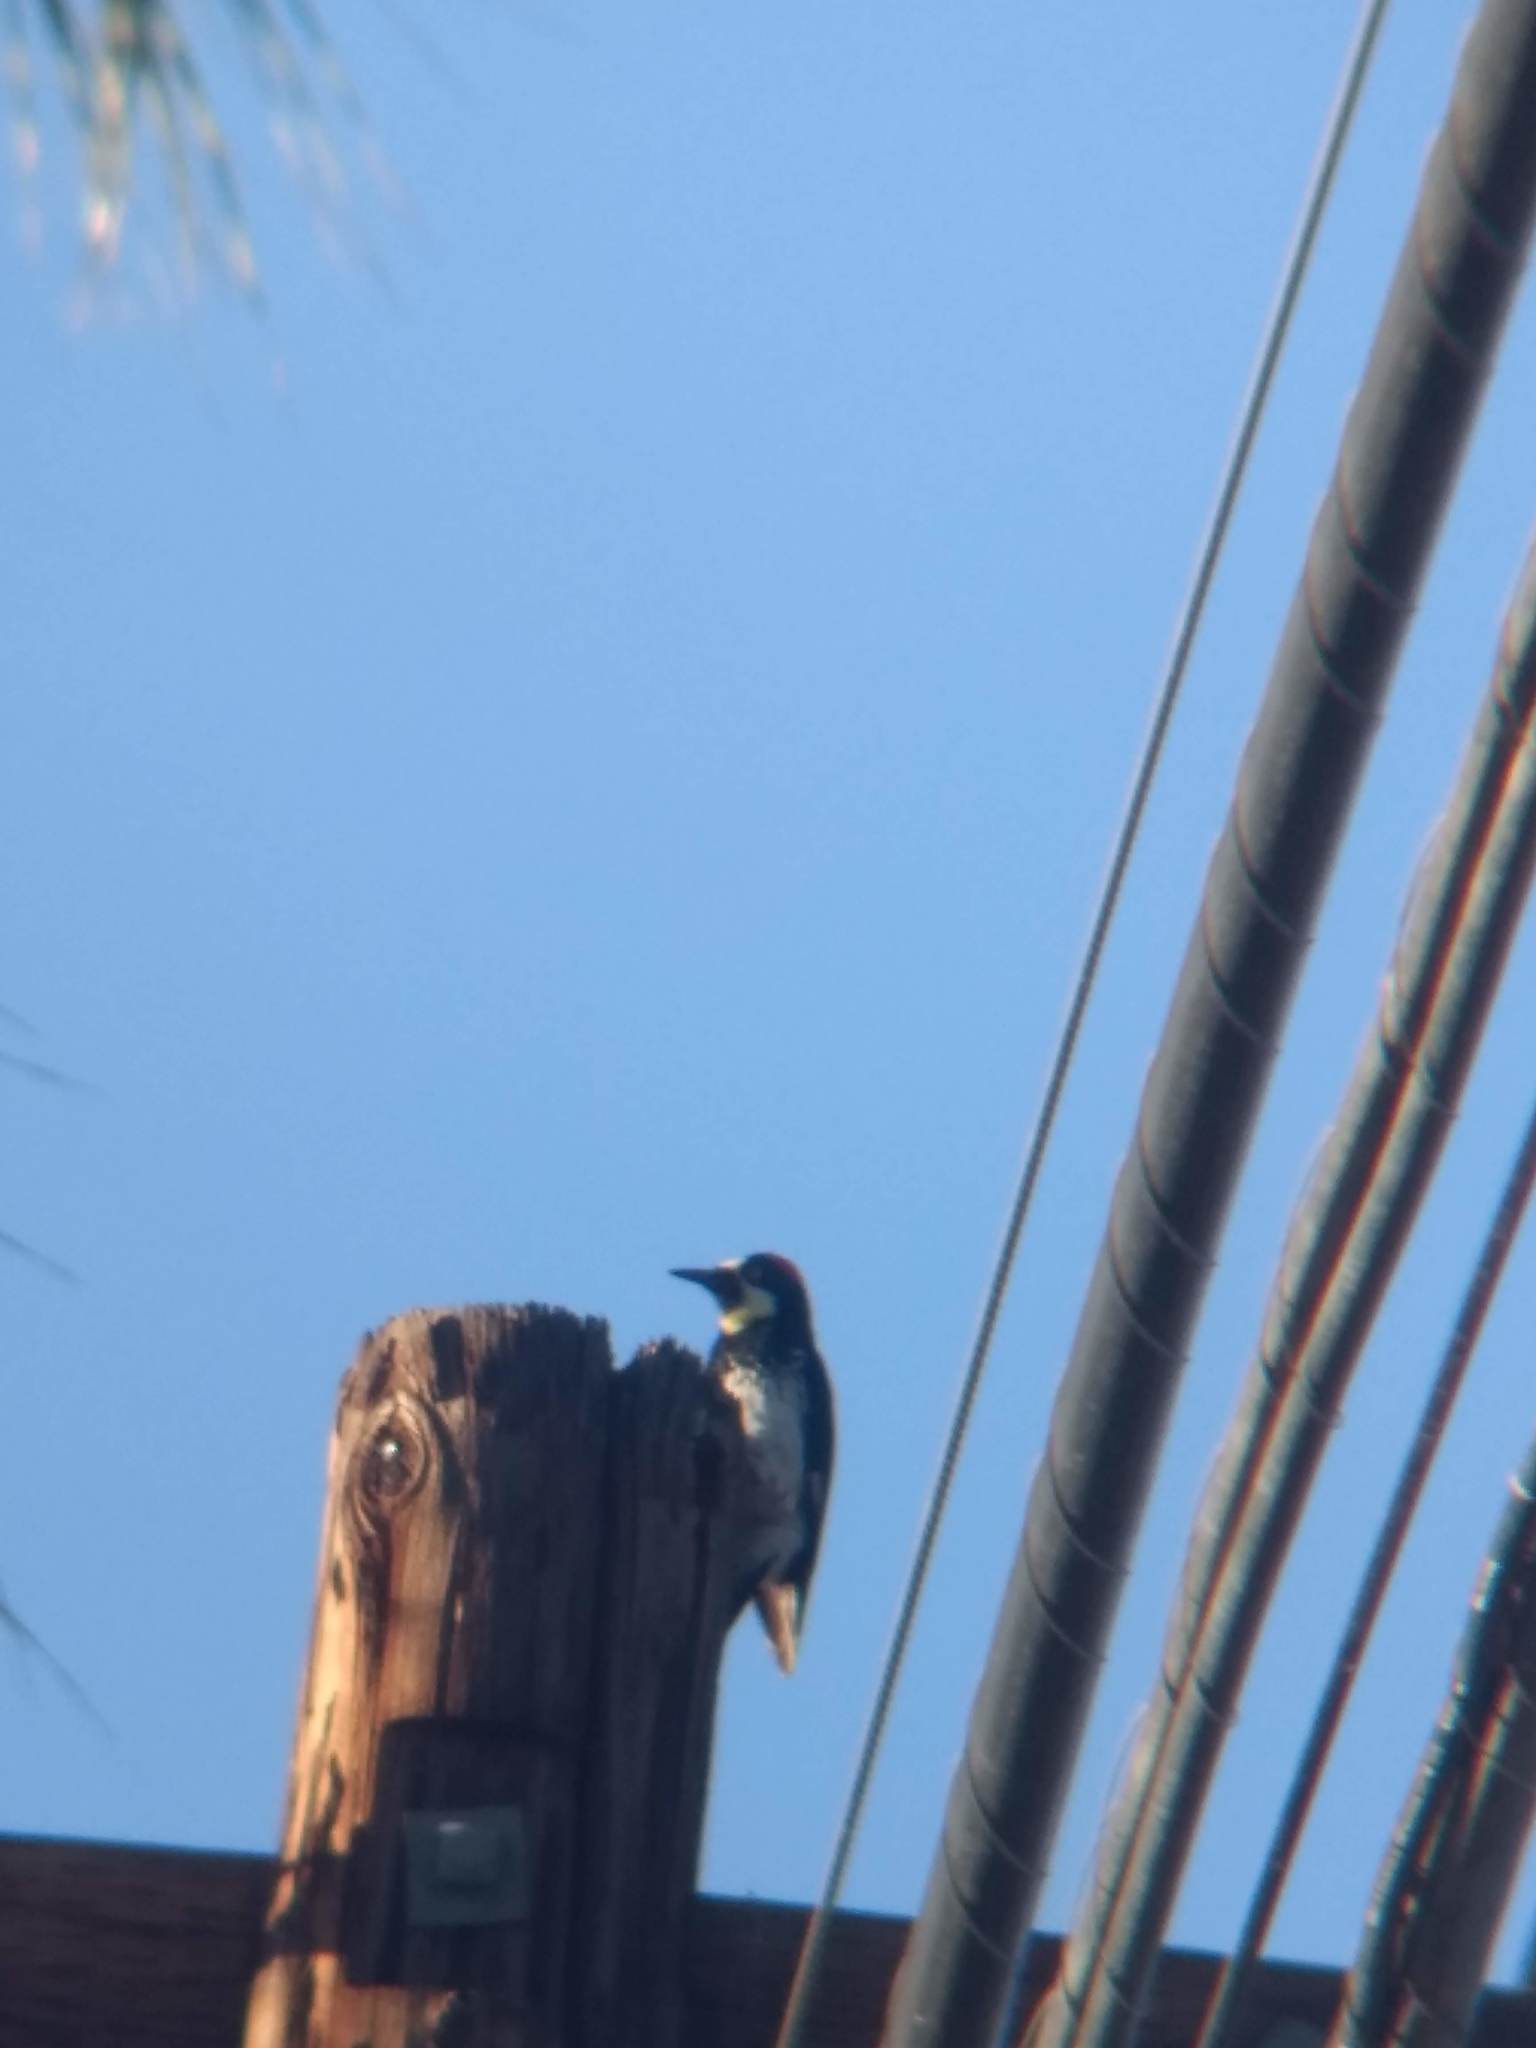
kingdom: Animalia
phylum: Chordata
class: Aves
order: Piciformes
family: Picidae
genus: Melanerpes
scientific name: Melanerpes formicivorus
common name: Acorn woodpecker
